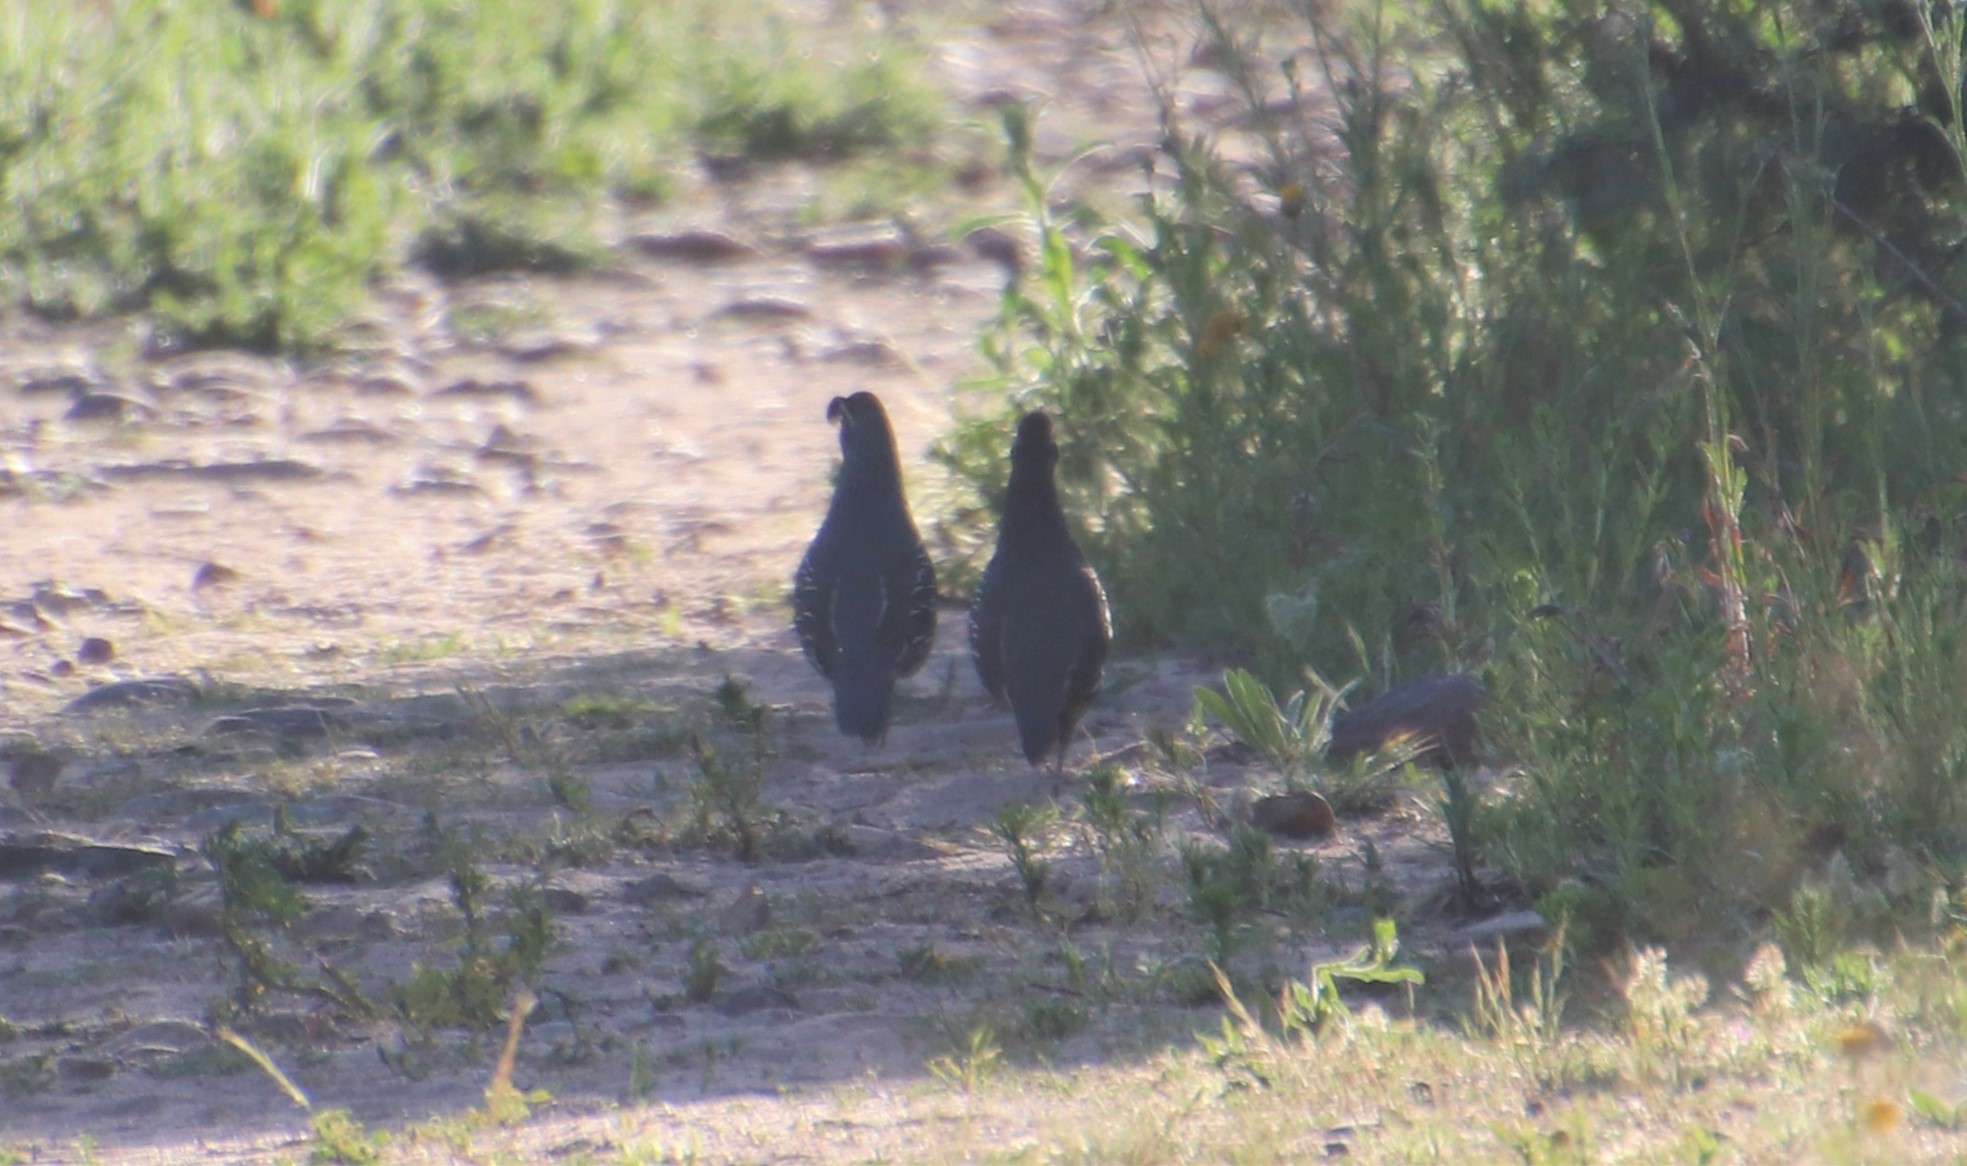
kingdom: Animalia
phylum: Chordata
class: Aves
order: Galliformes
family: Odontophoridae
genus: Callipepla
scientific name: Callipepla californica
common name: California quail
